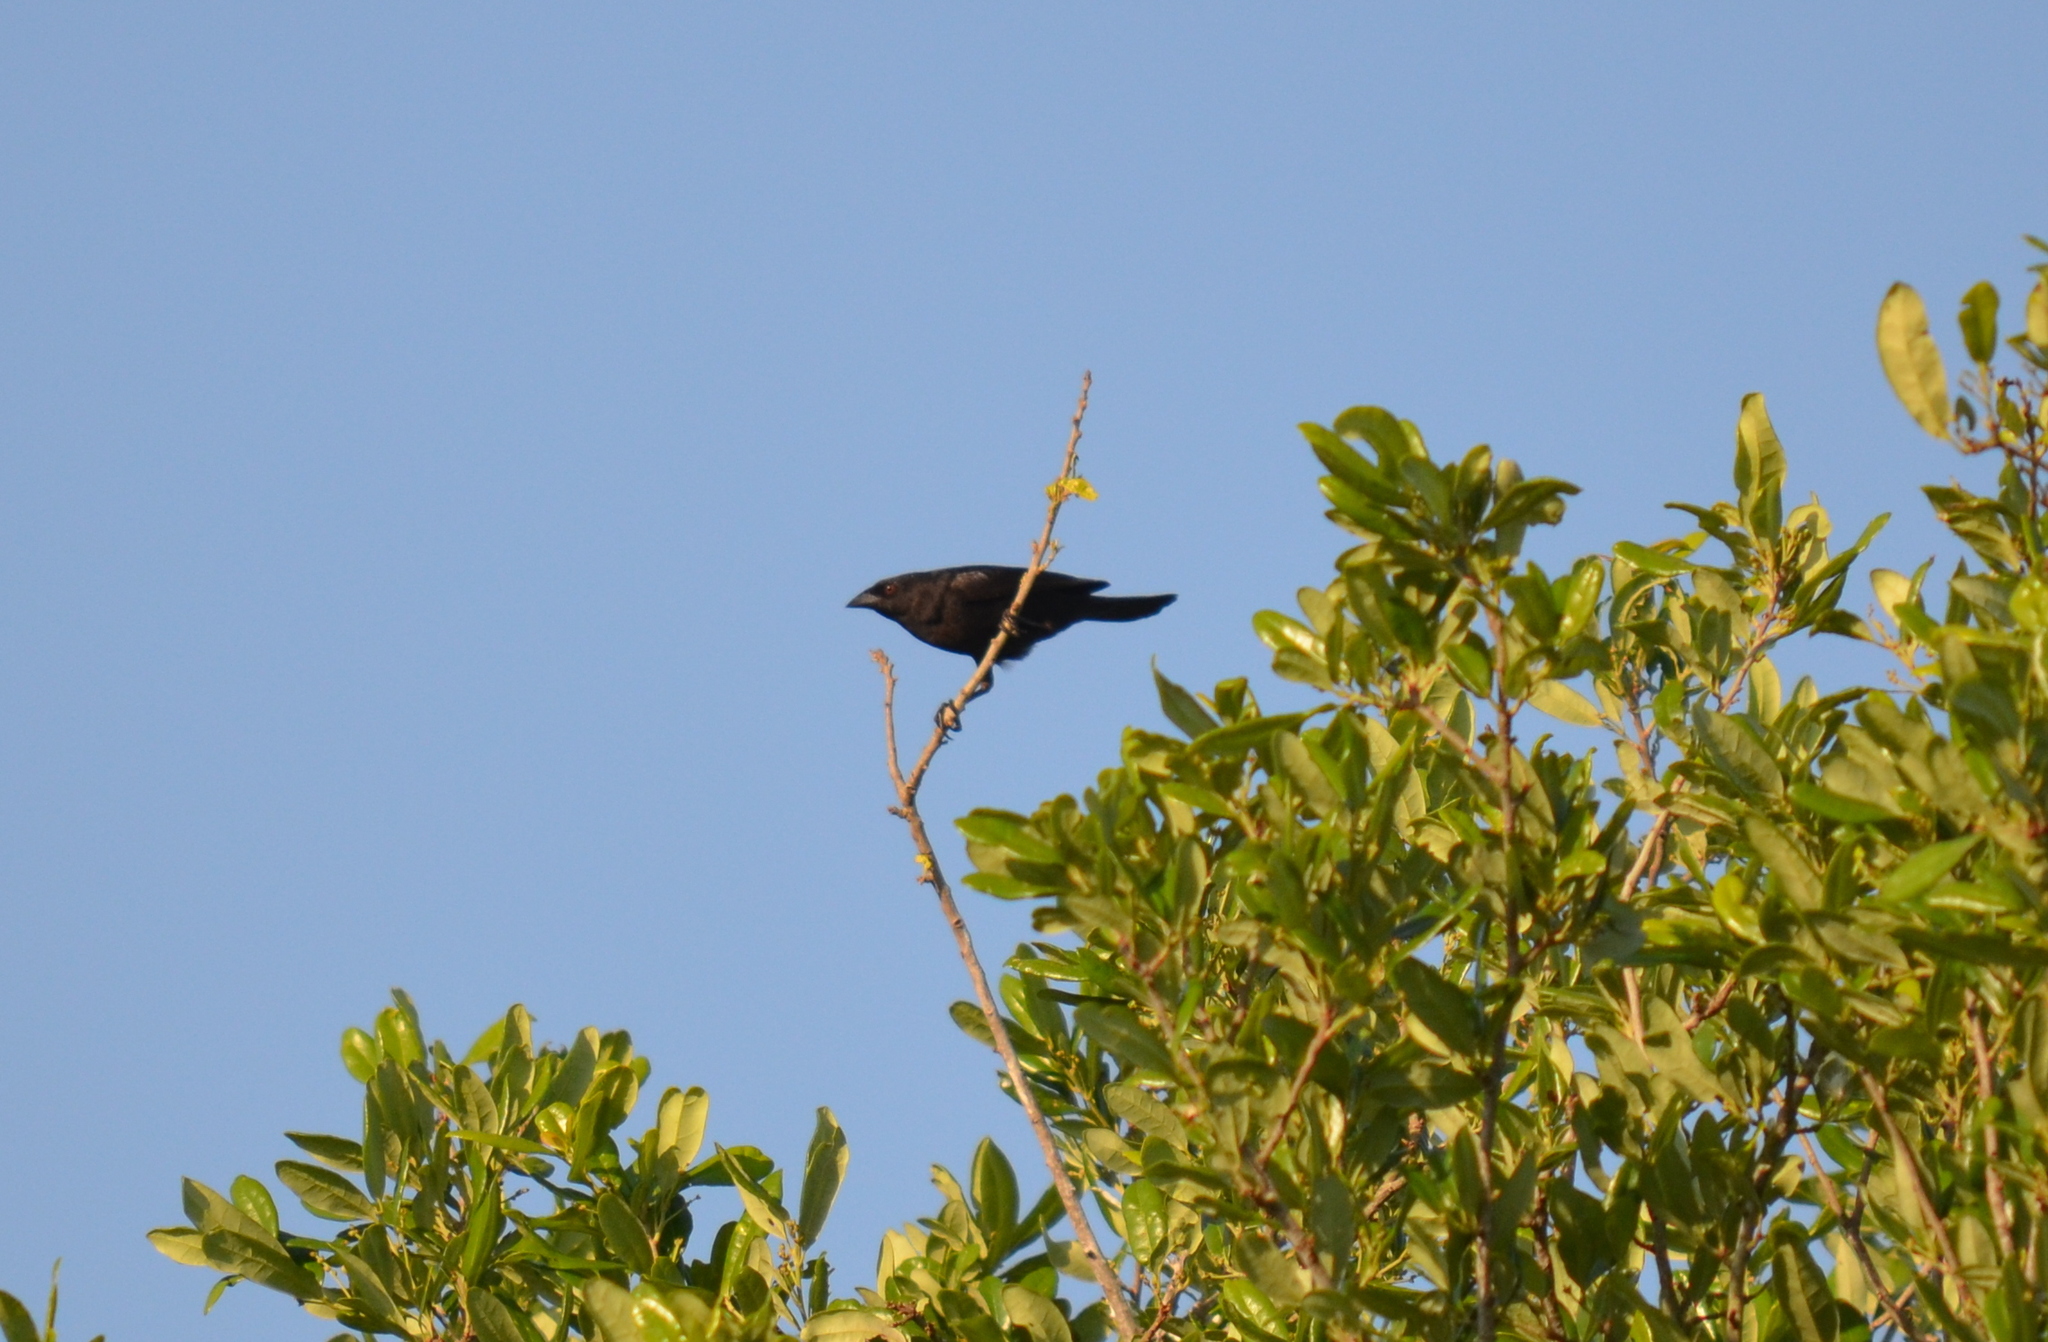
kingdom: Animalia
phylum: Chordata
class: Aves
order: Passeriformes
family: Icteridae
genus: Molothrus
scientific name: Molothrus aeneus
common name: Bronzed cowbird
